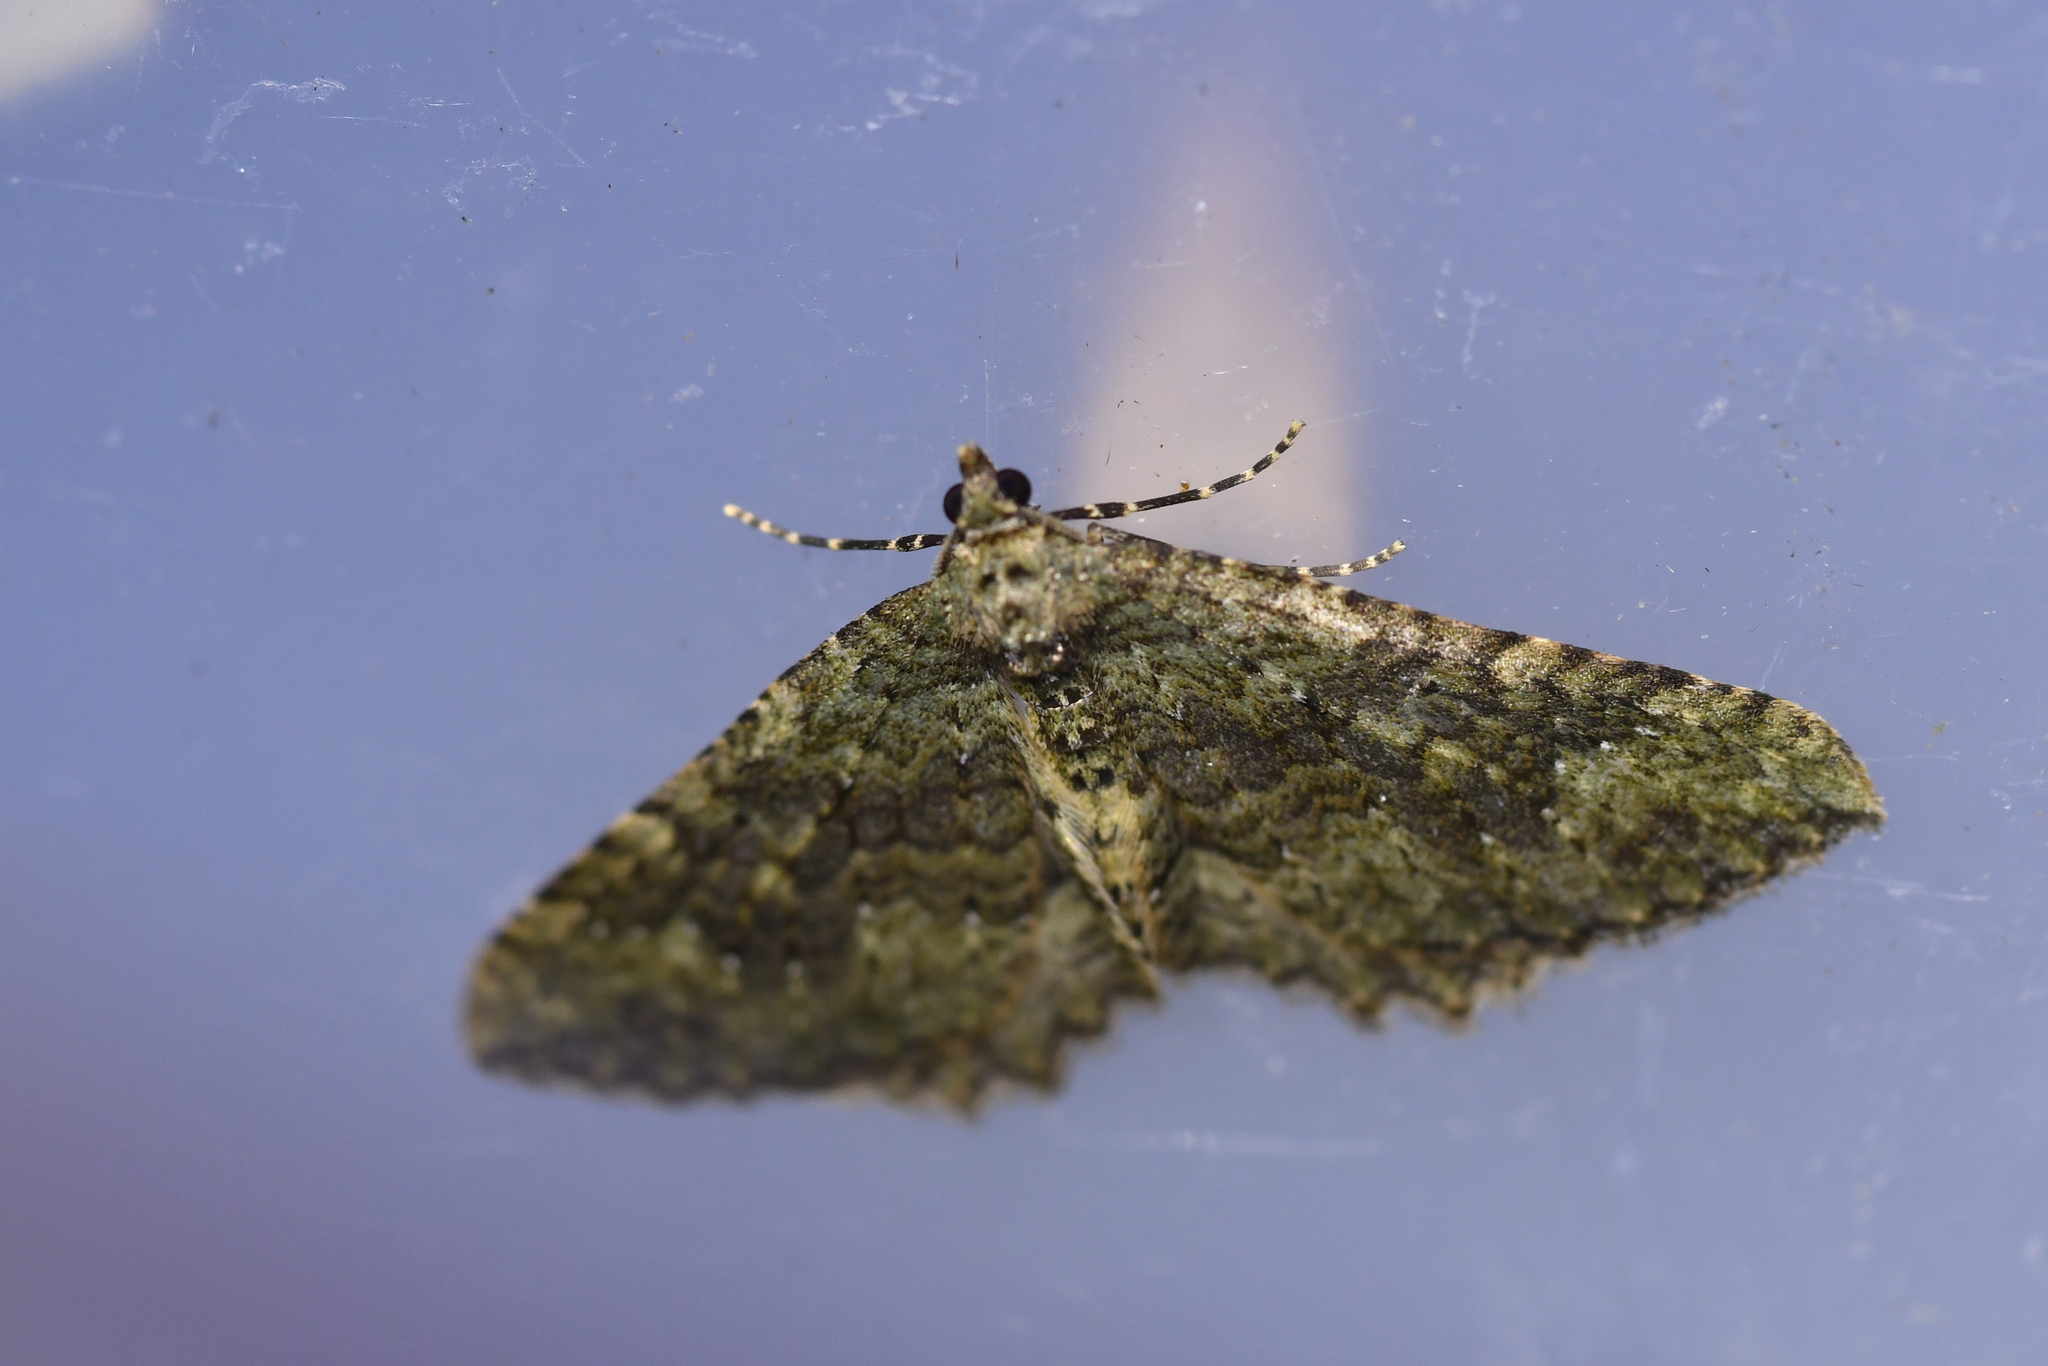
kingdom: Animalia
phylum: Arthropoda
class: Insecta
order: Lepidoptera
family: Geometridae
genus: Austrocidaria
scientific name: Austrocidaria umbrosa
